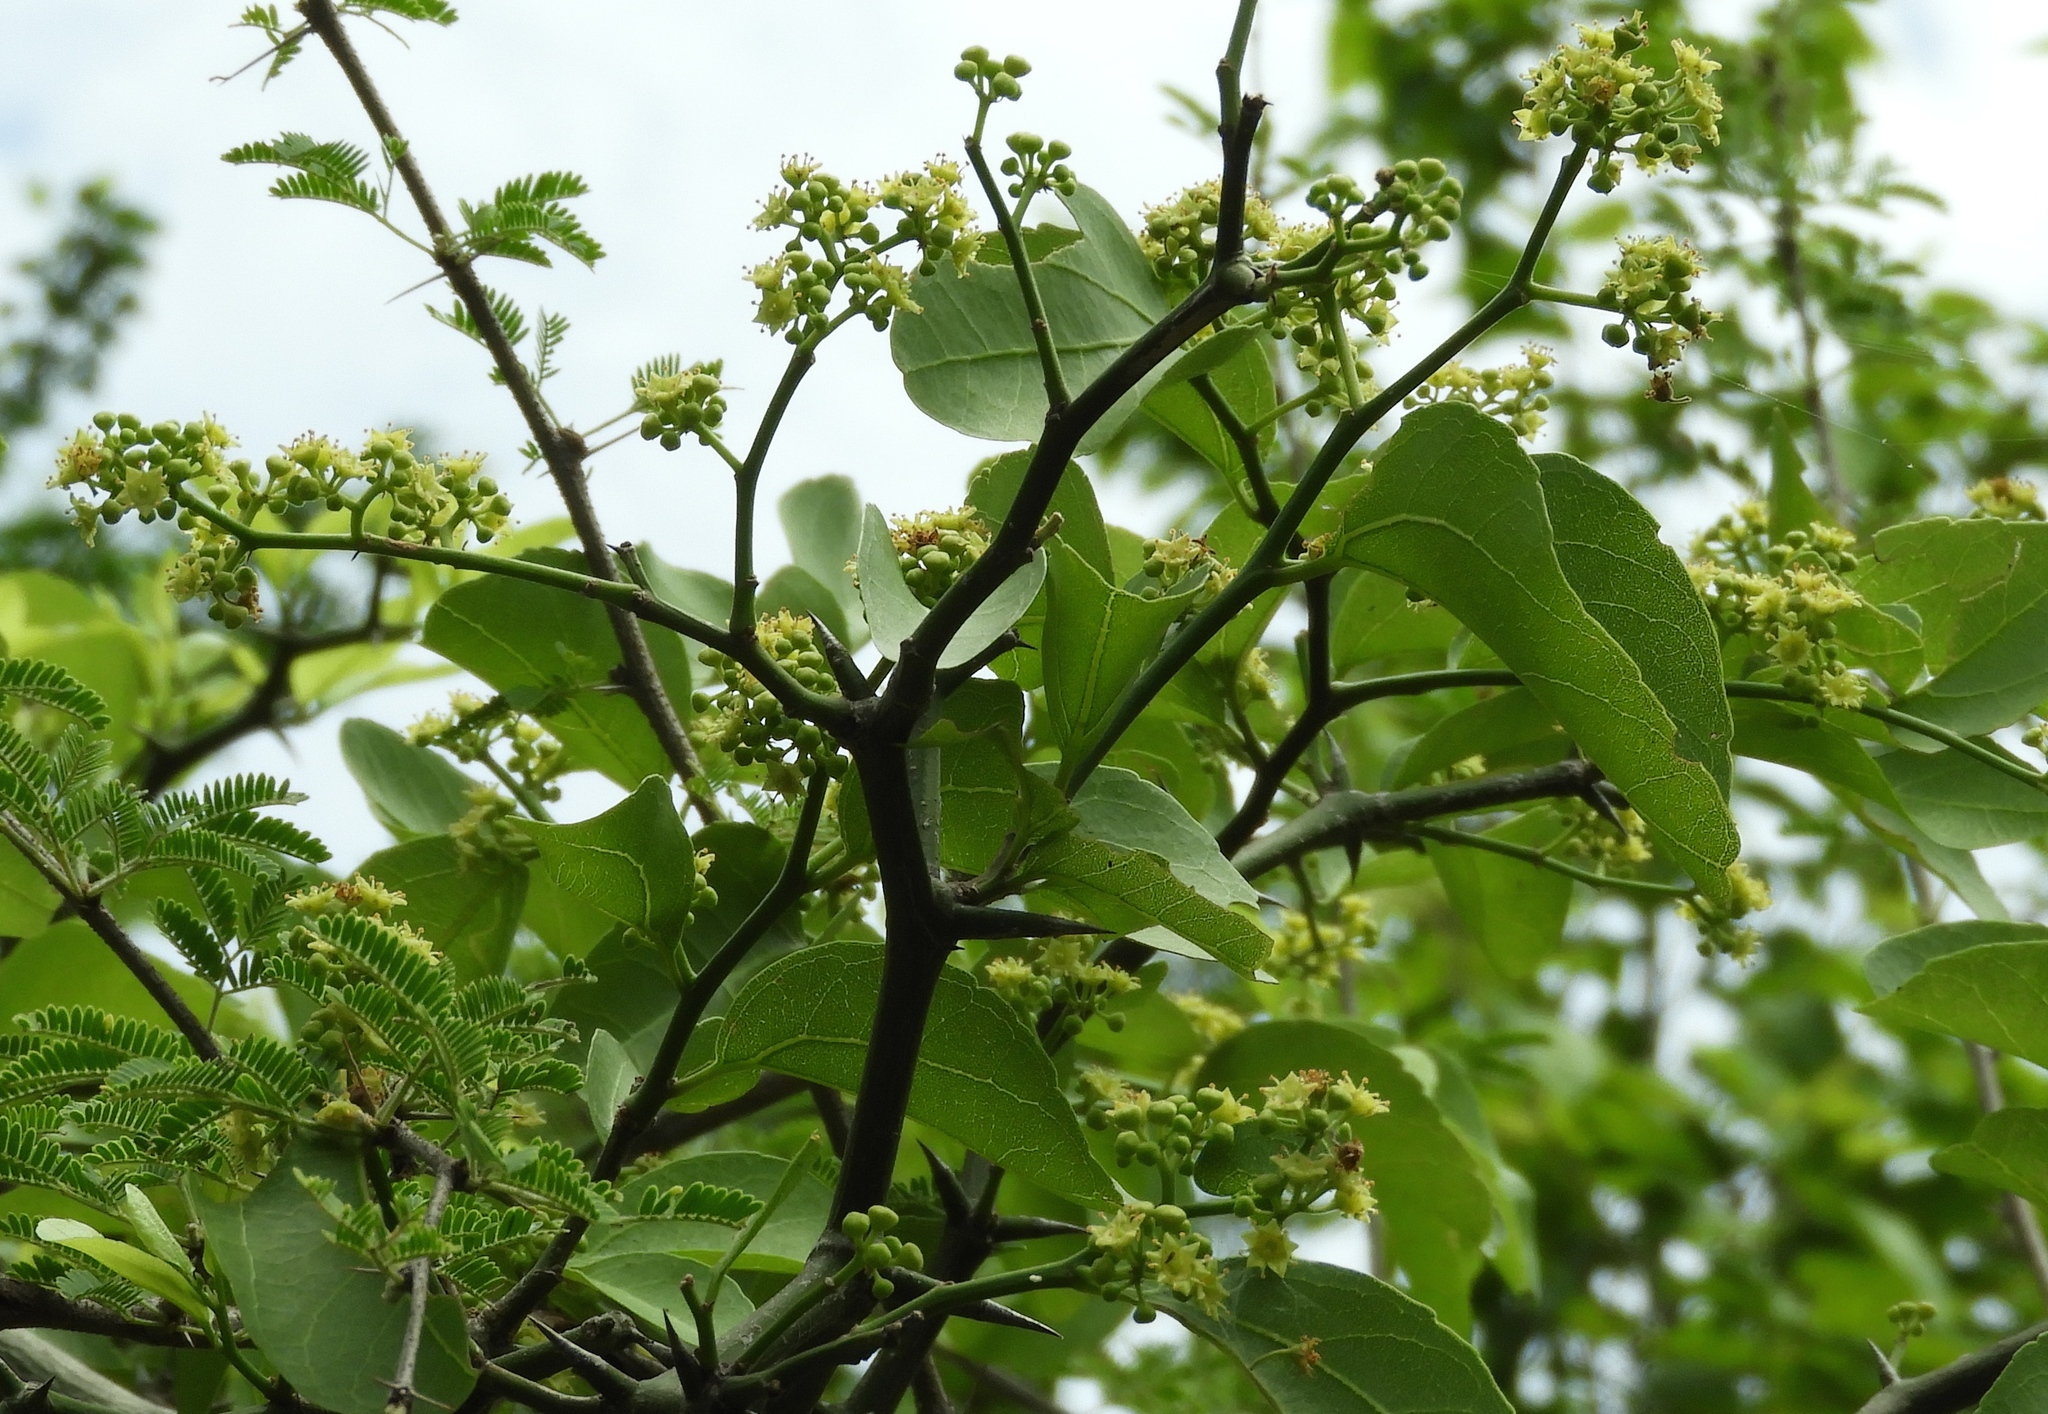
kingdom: Plantae
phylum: Tracheophyta
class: Magnoliopsida
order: Rosales
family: Rhamnaceae
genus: Sarcomphalus
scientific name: Sarcomphalus amole
